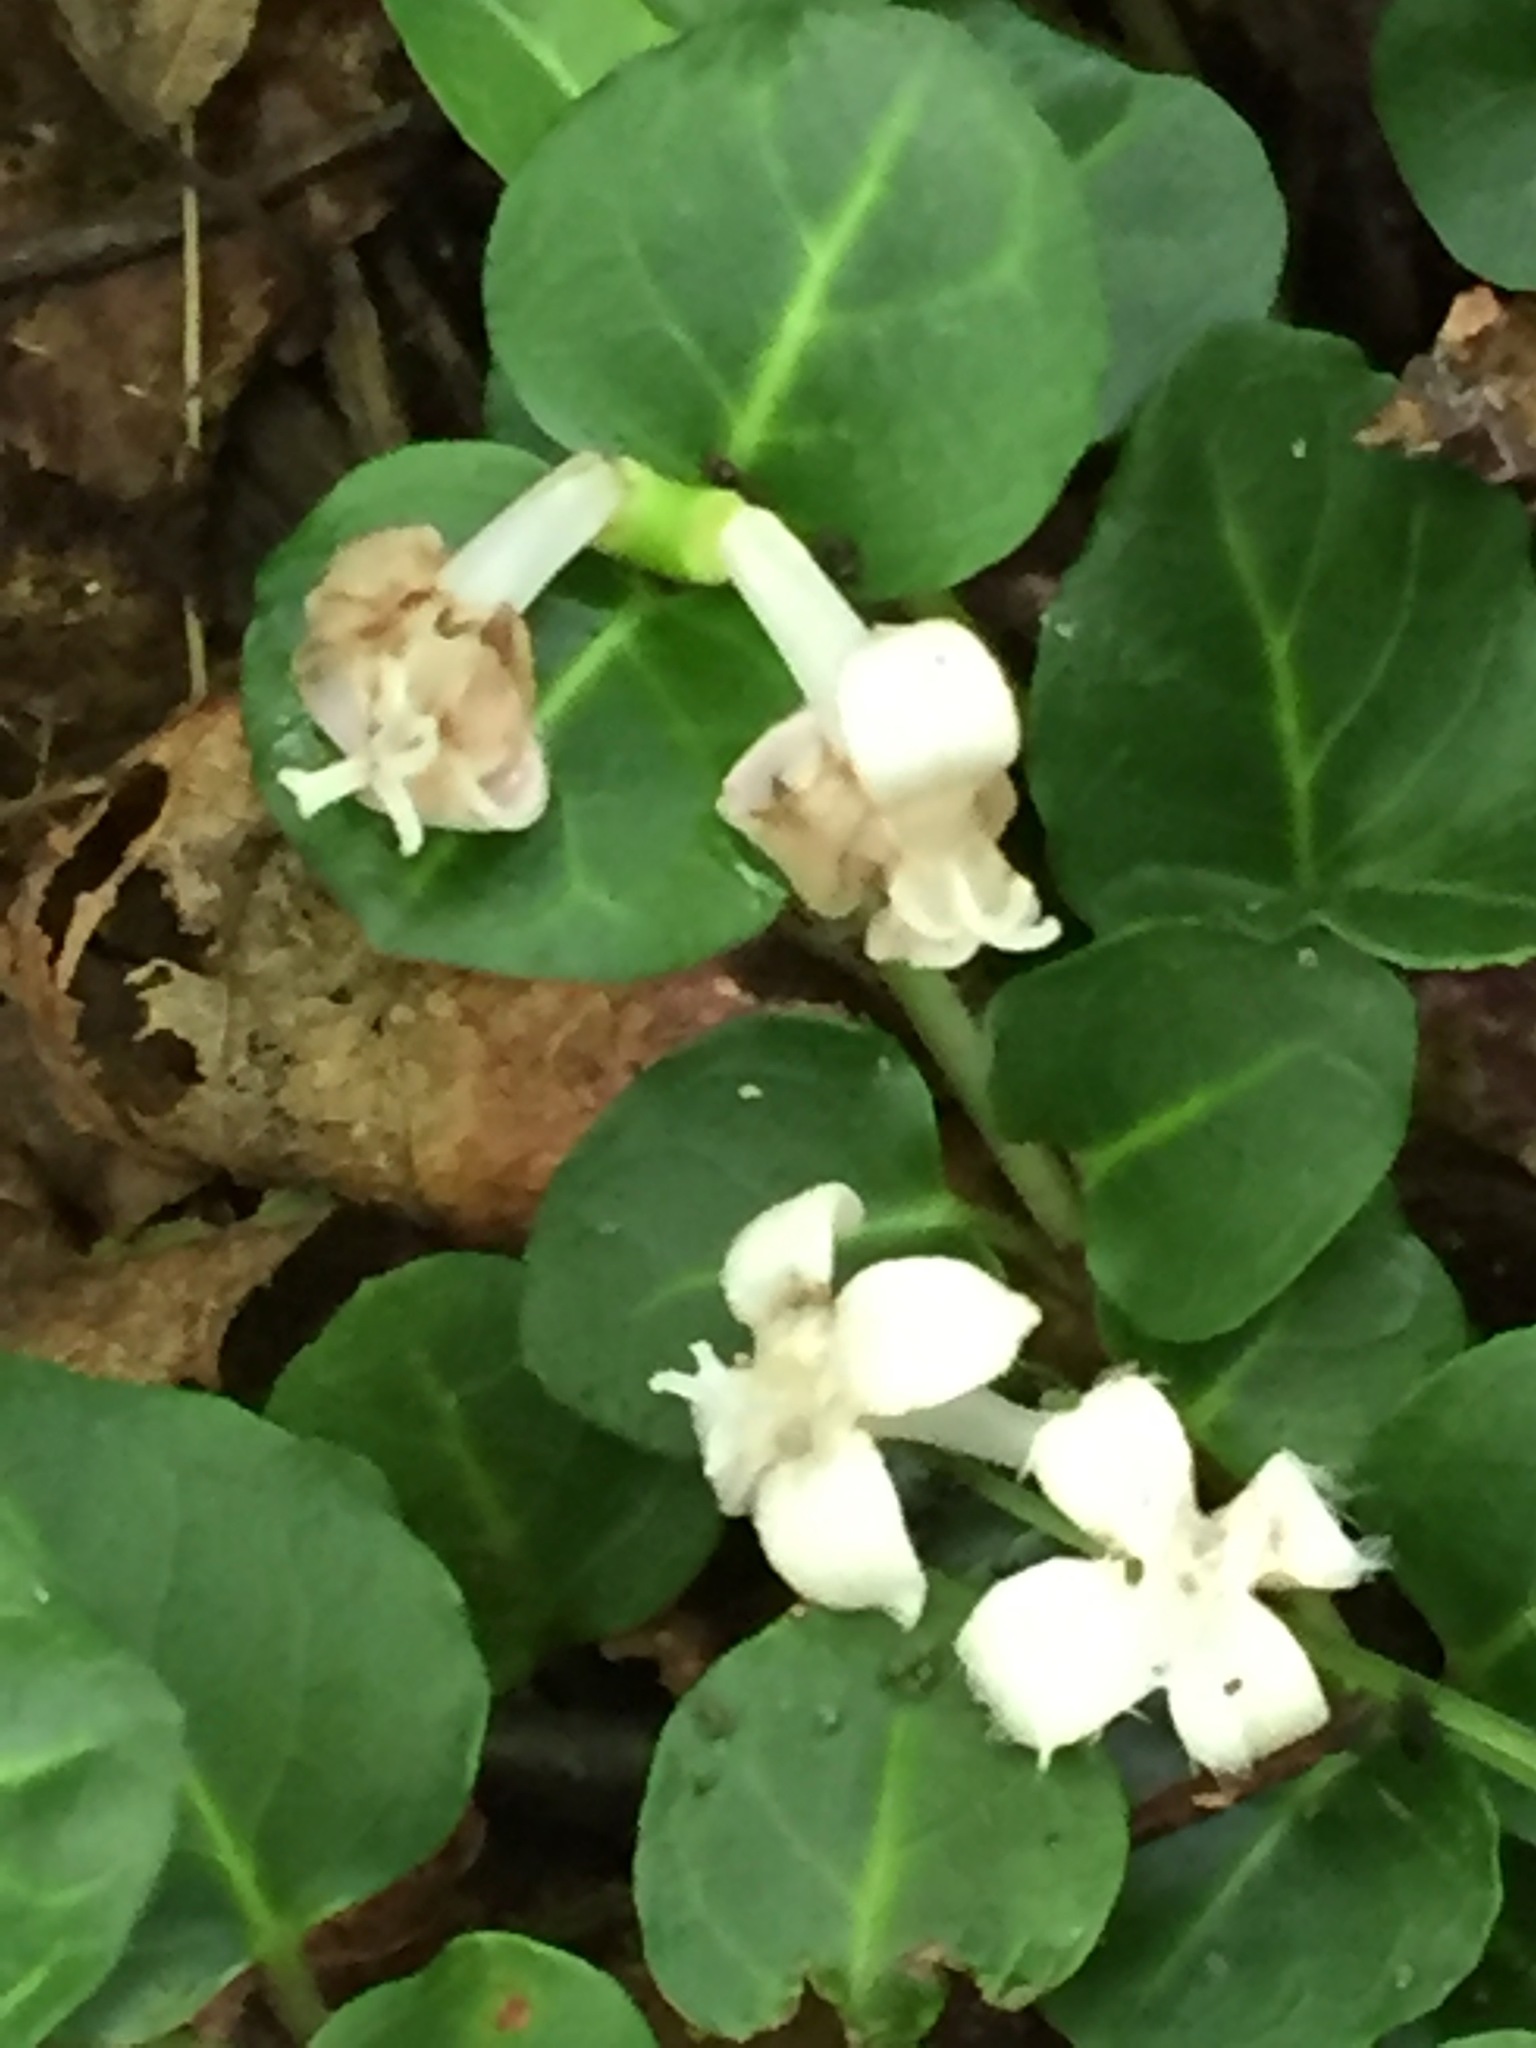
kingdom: Plantae
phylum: Tracheophyta
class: Magnoliopsida
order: Gentianales
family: Rubiaceae
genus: Mitchella
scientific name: Mitchella repens
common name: Partridge-berry
